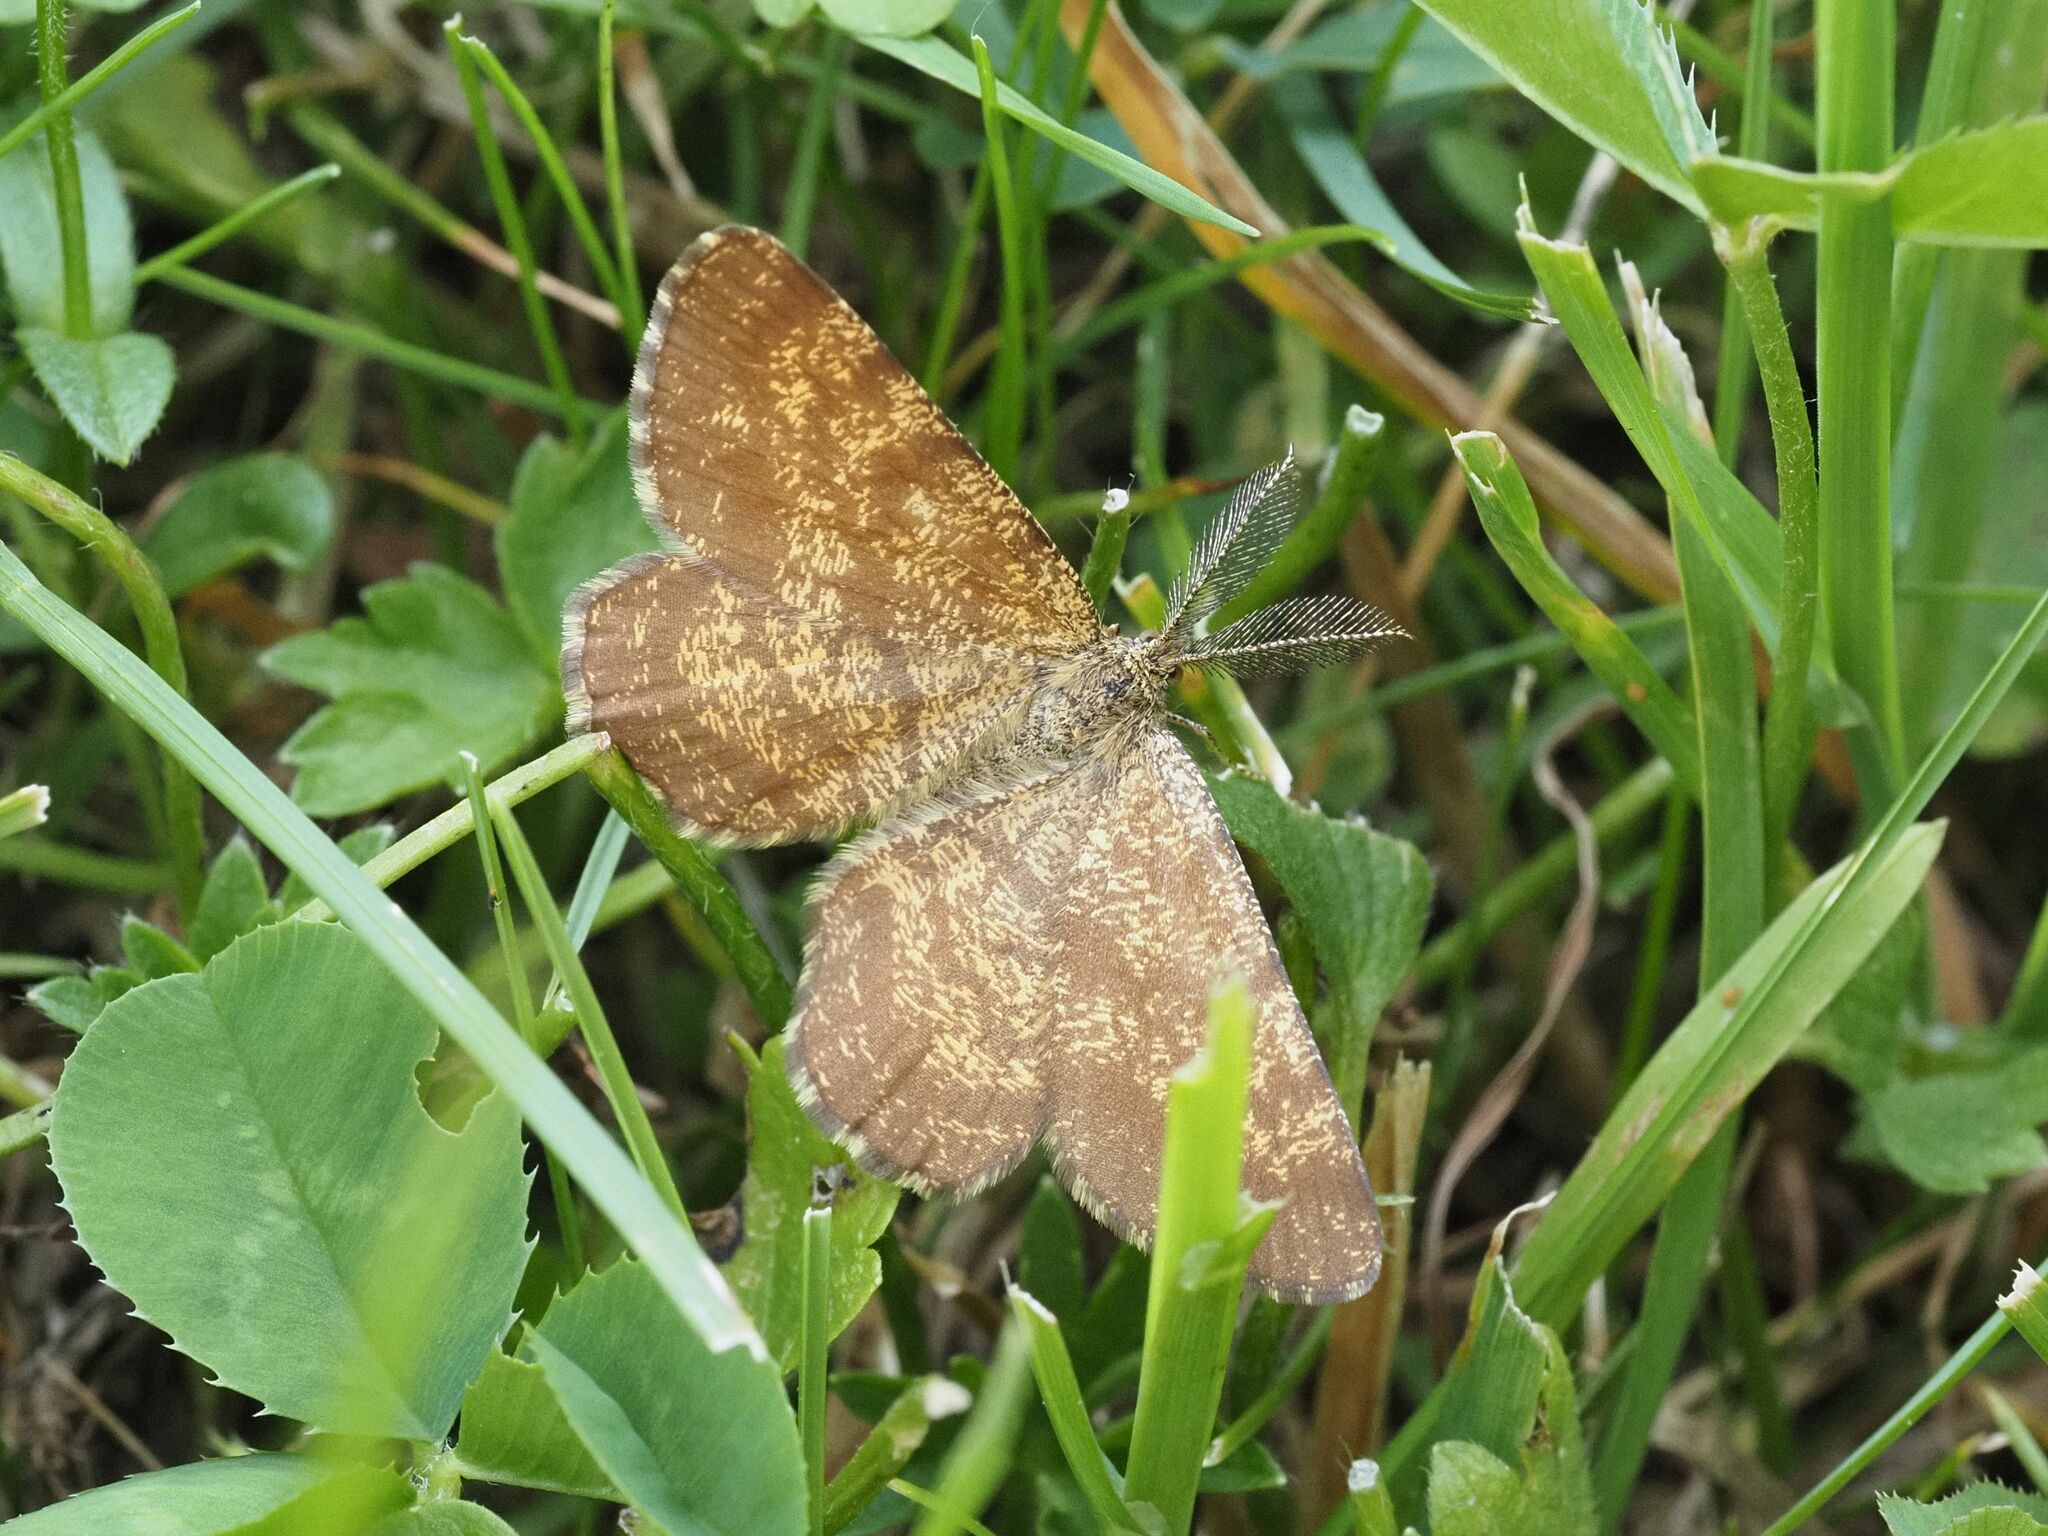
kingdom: Animalia
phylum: Arthropoda
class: Insecta
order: Lepidoptera
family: Geometridae
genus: Ematurga
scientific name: Ematurga atomaria
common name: Common heath
